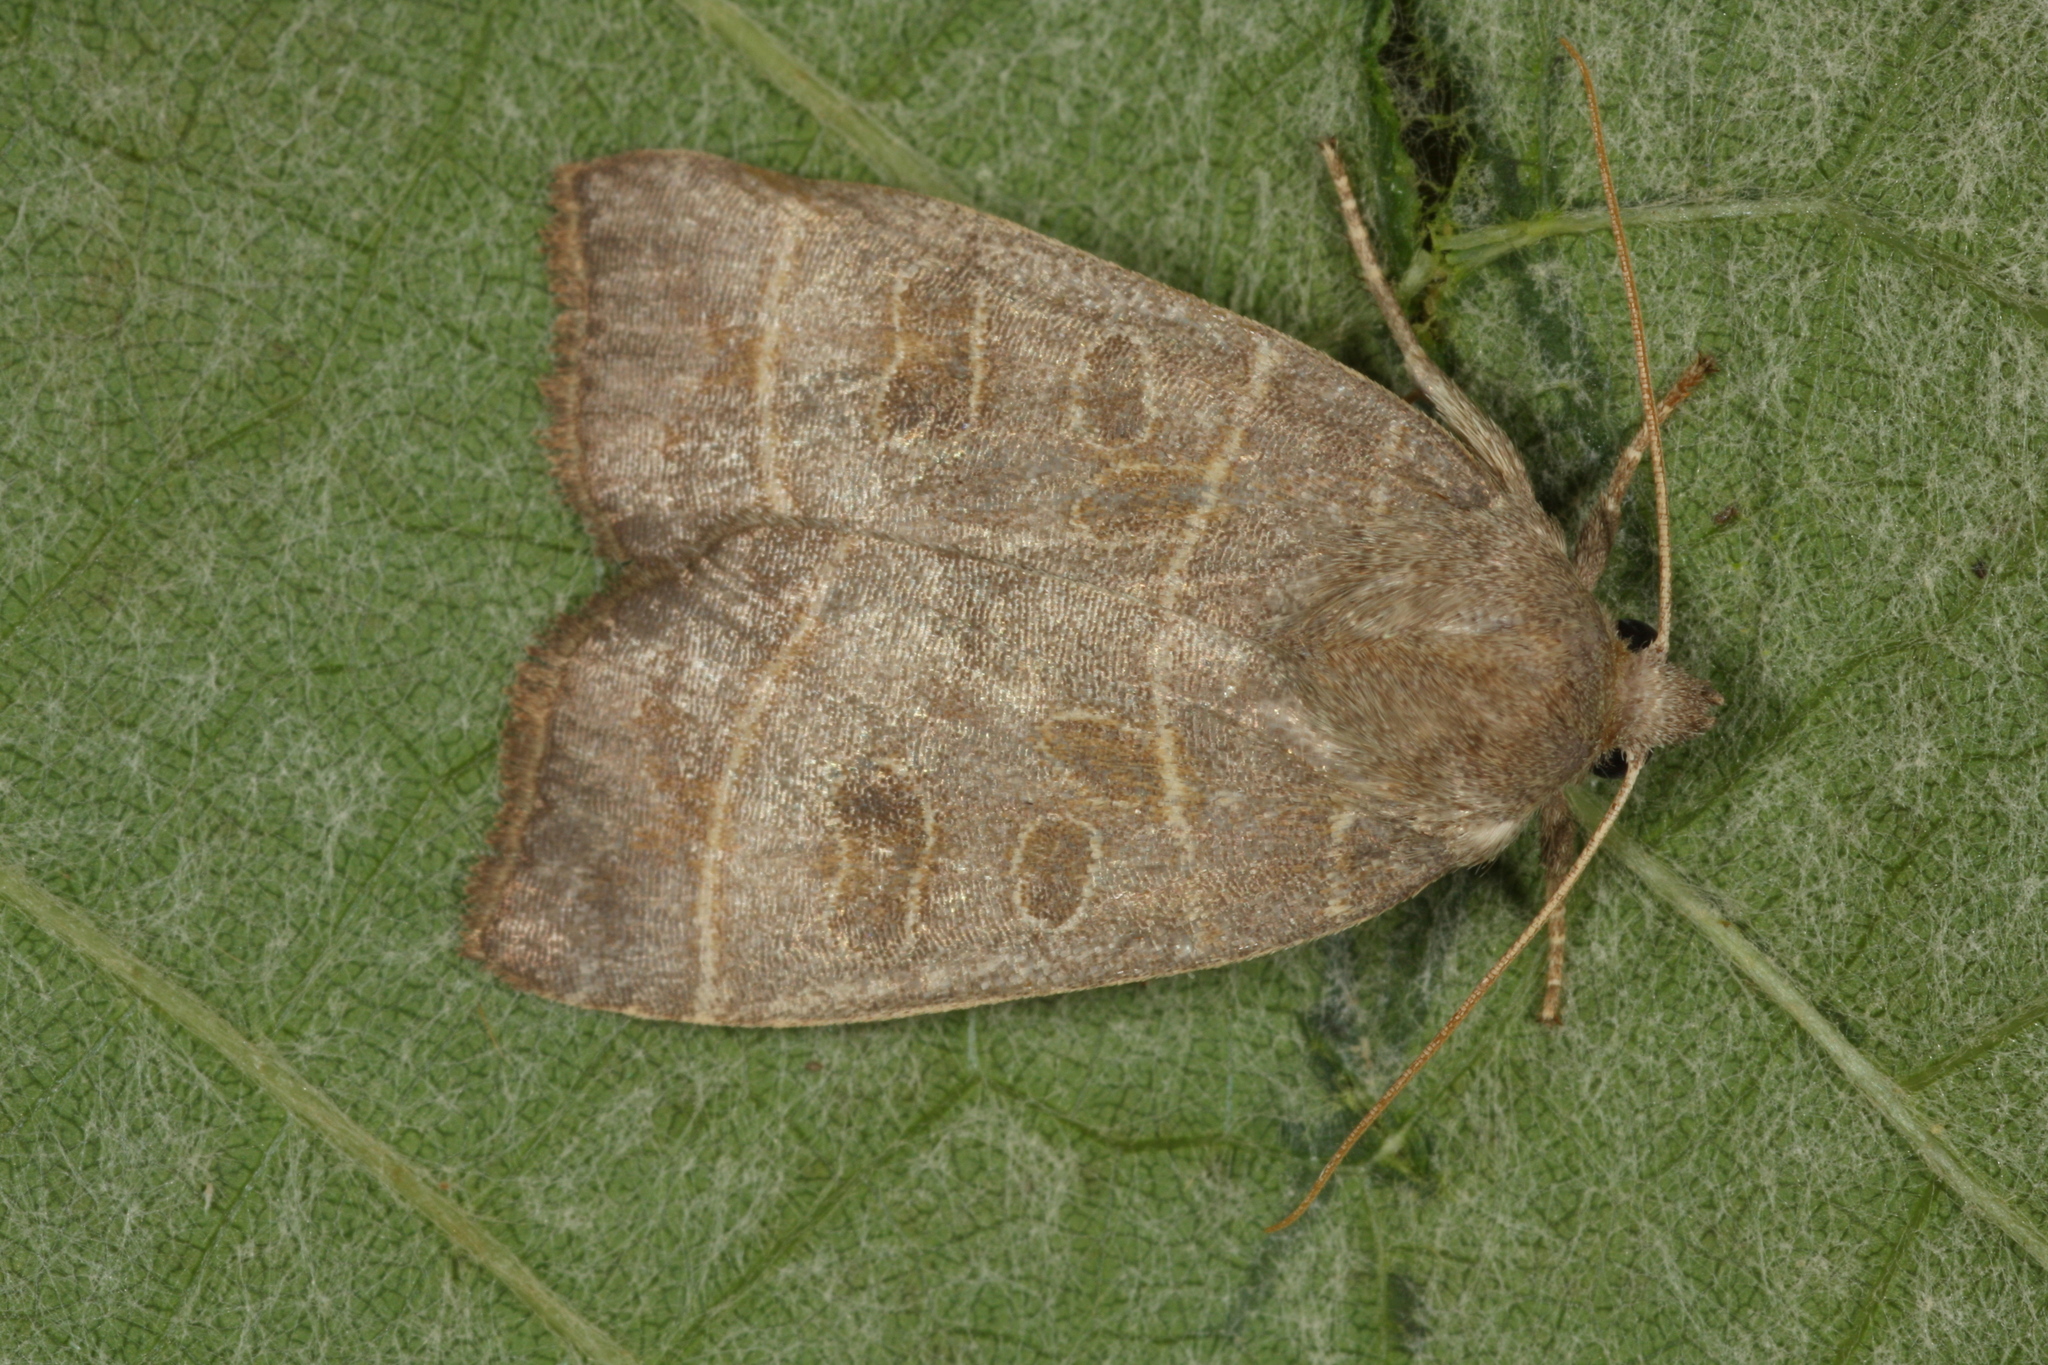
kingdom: Animalia
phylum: Arthropoda
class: Insecta
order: Lepidoptera
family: Noctuidae
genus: Ipimorpha
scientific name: Ipimorpha subtusa
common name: Olive
